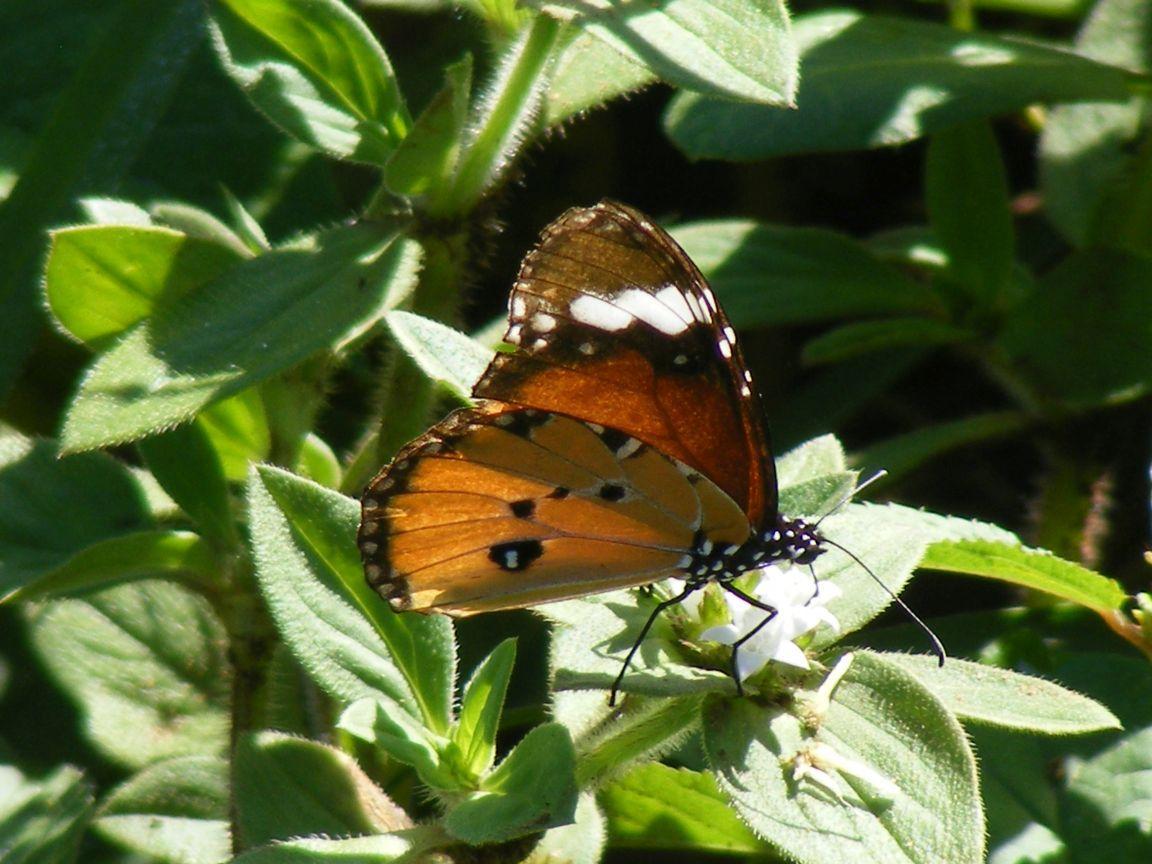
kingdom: Animalia
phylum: Arthropoda
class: Insecta
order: Lepidoptera
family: Nymphalidae
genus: Danaus
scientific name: Danaus chrysippus
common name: Plain tiger
